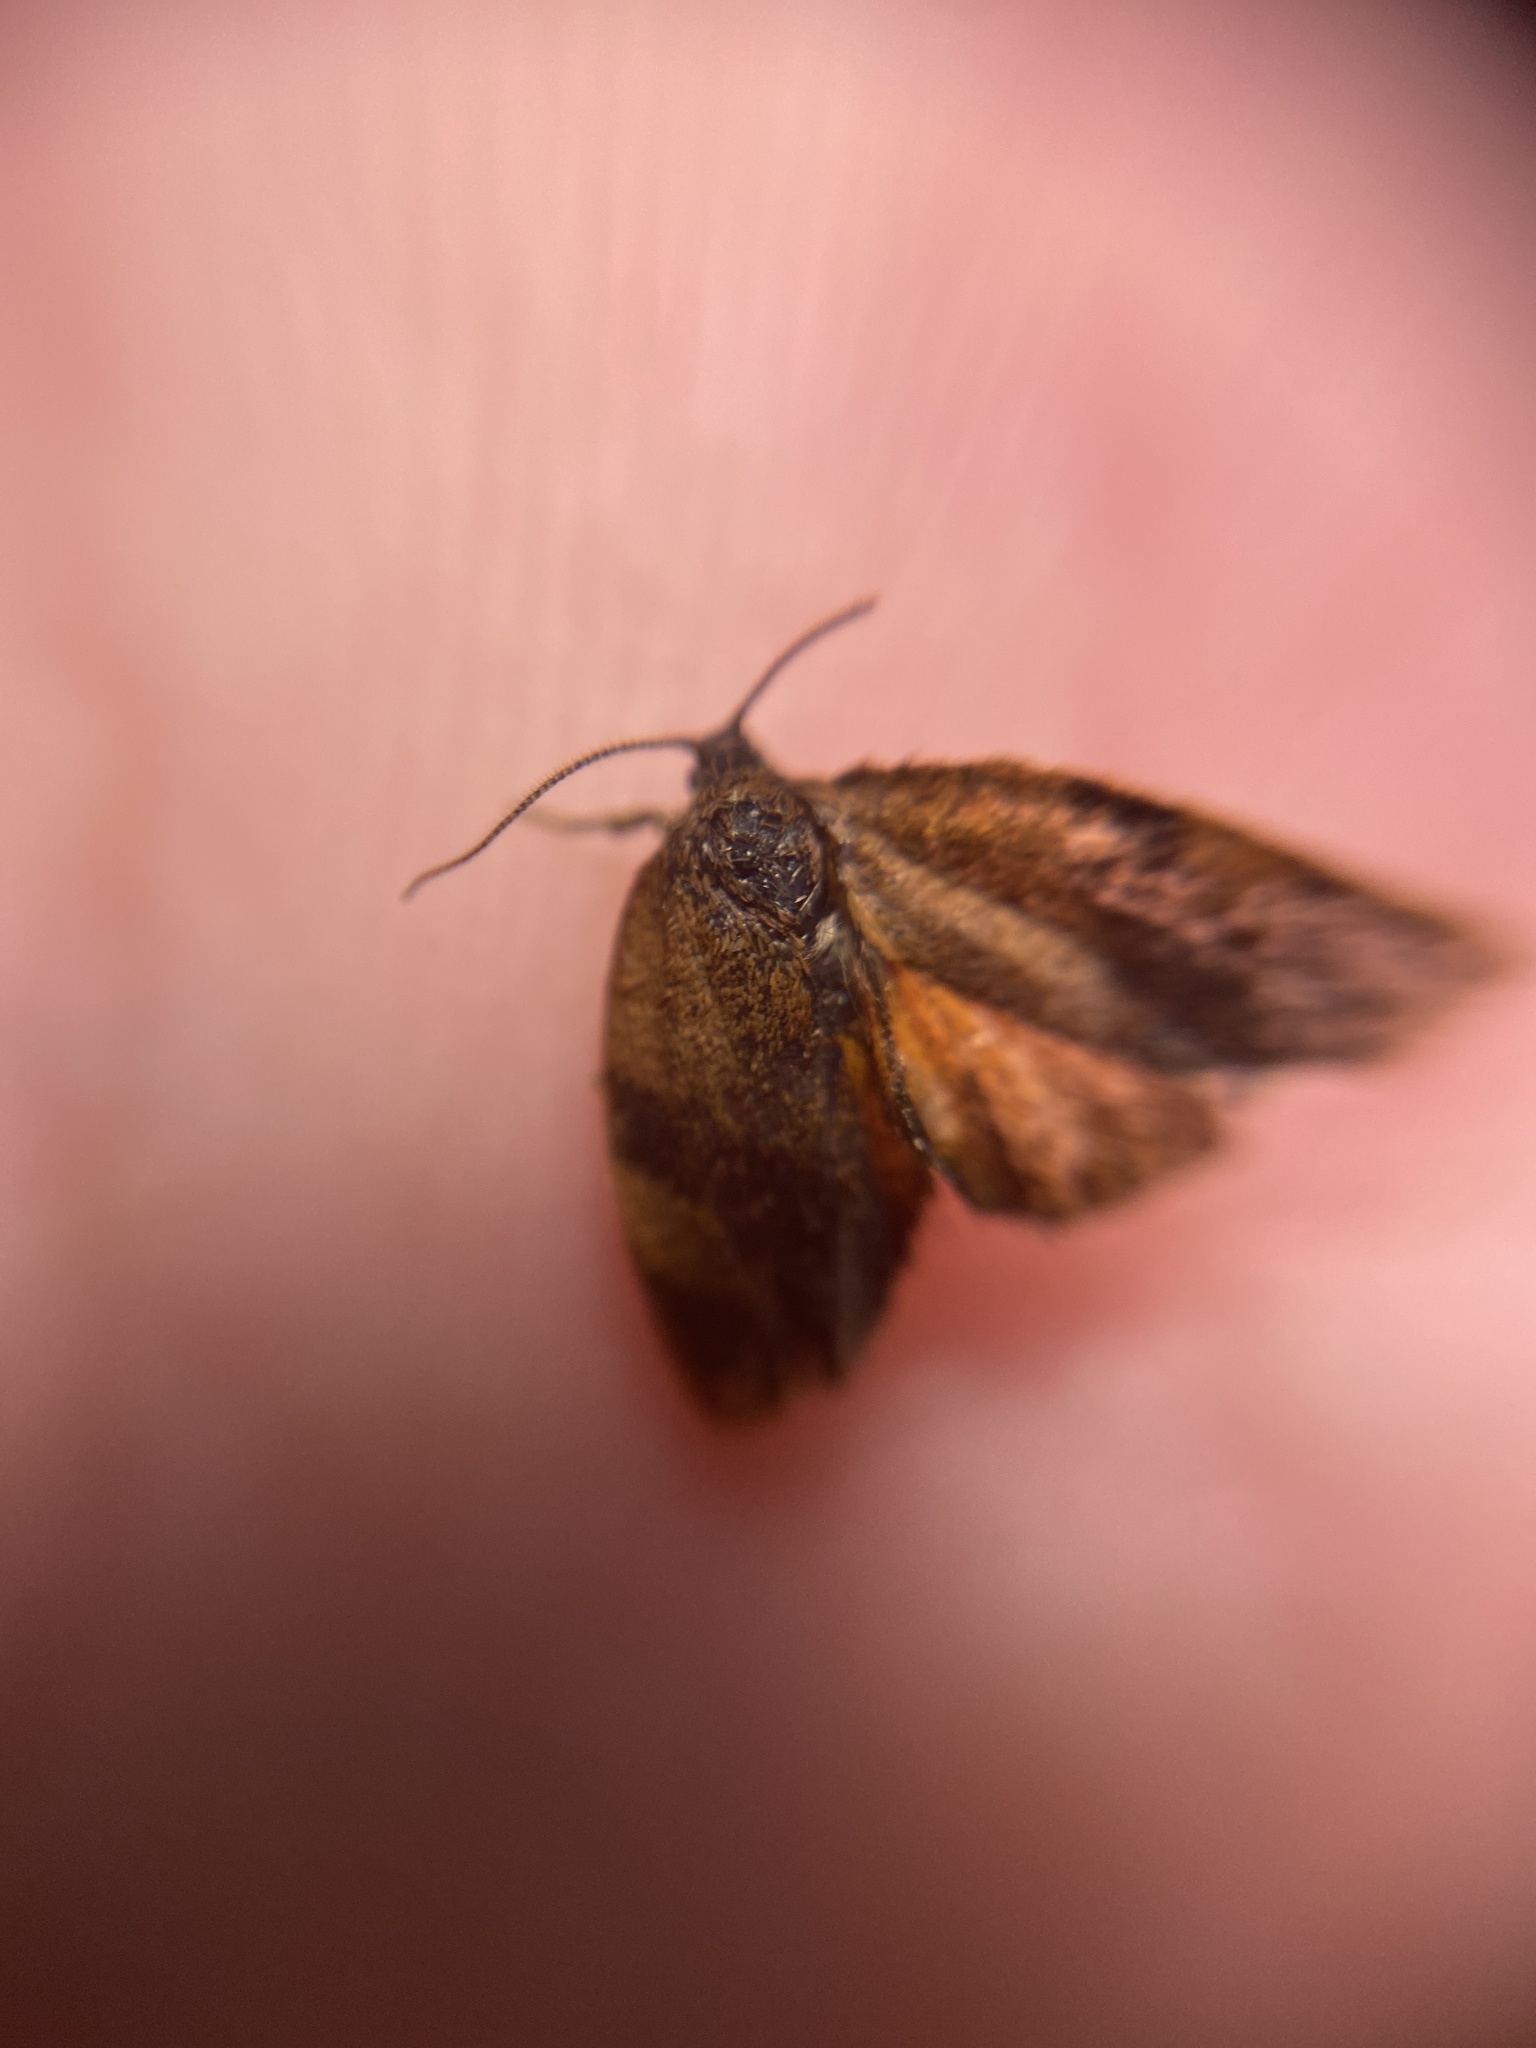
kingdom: Animalia
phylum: Arthropoda
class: Insecta
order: Lepidoptera
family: Tortricidae
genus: Cacoecimorpha
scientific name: Cacoecimorpha pronubana
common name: Carnation tortrix
